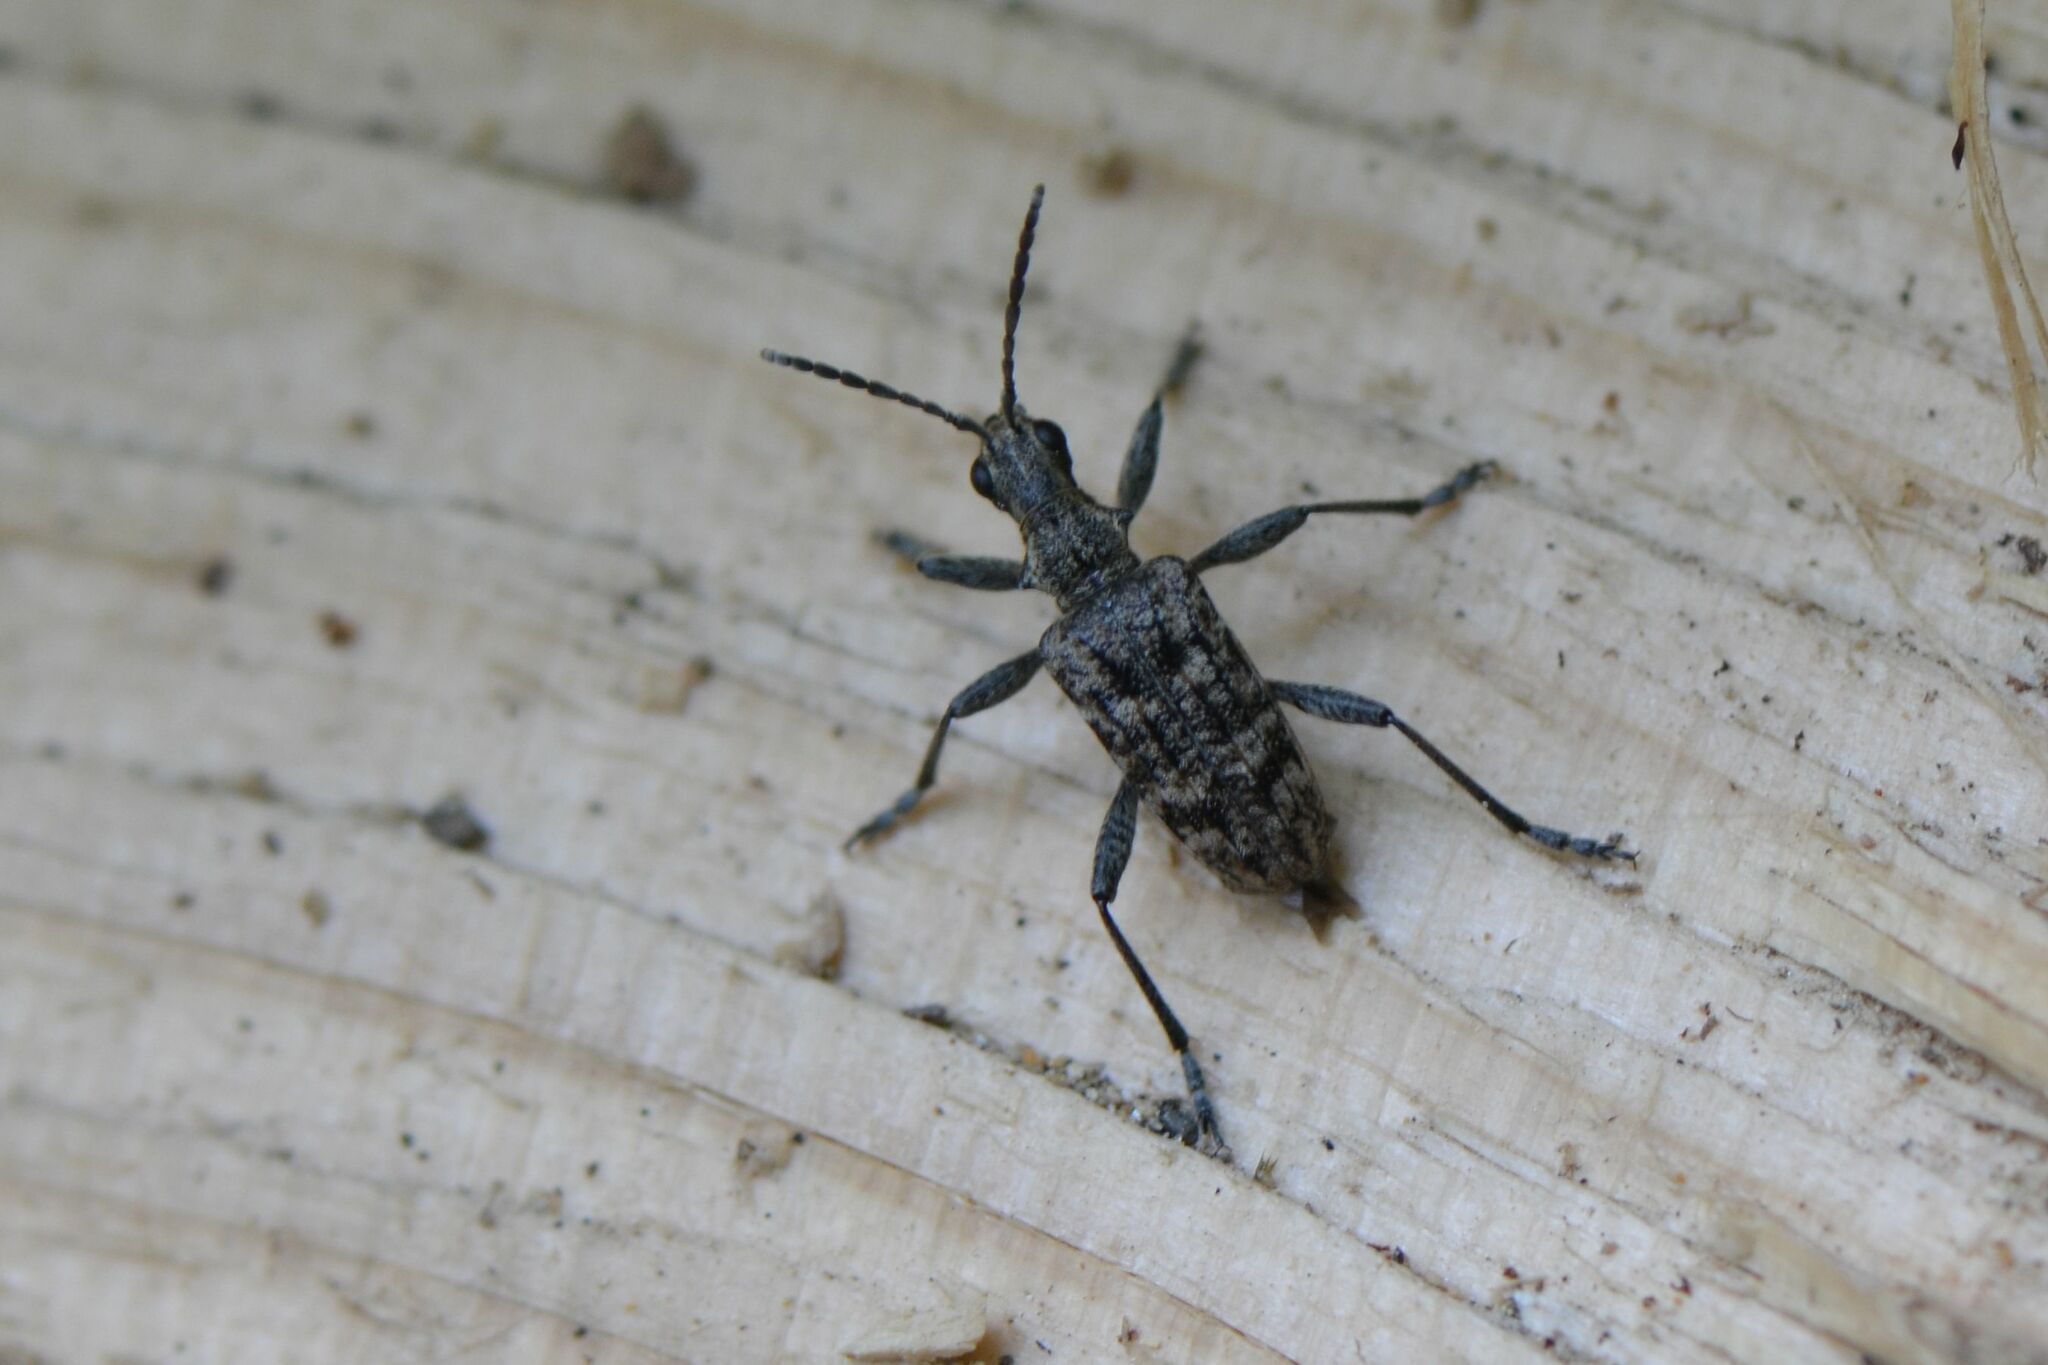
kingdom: Animalia
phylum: Arthropoda
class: Insecta
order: Coleoptera
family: Cerambycidae
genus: Rhagium
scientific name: Rhagium inquisitor
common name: Ribbed pine borer
